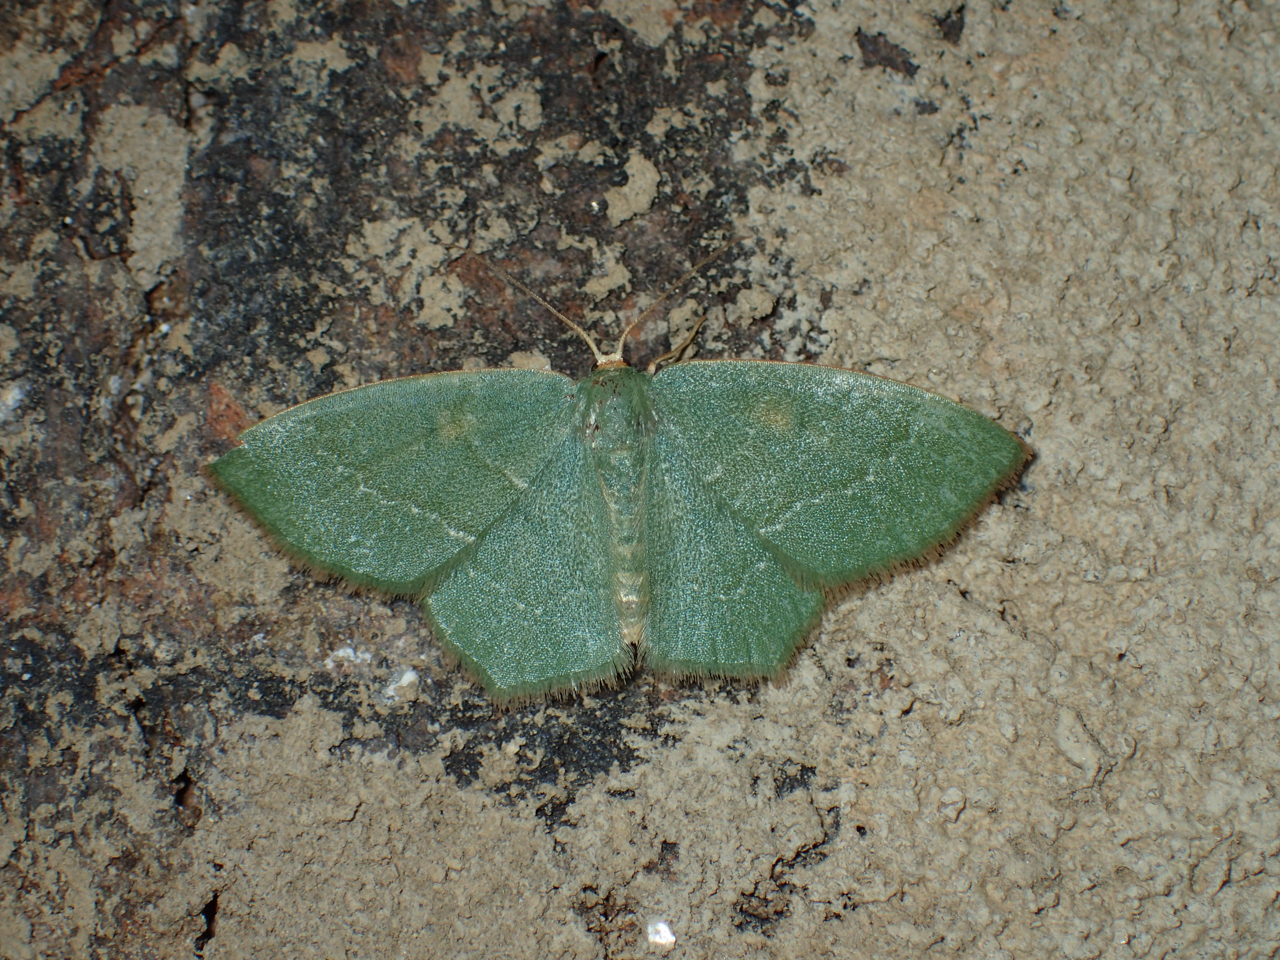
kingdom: Animalia
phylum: Arthropoda
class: Insecta
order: Lepidoptera
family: Geometridae
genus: Thalera
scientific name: Thalera pistasciaria
